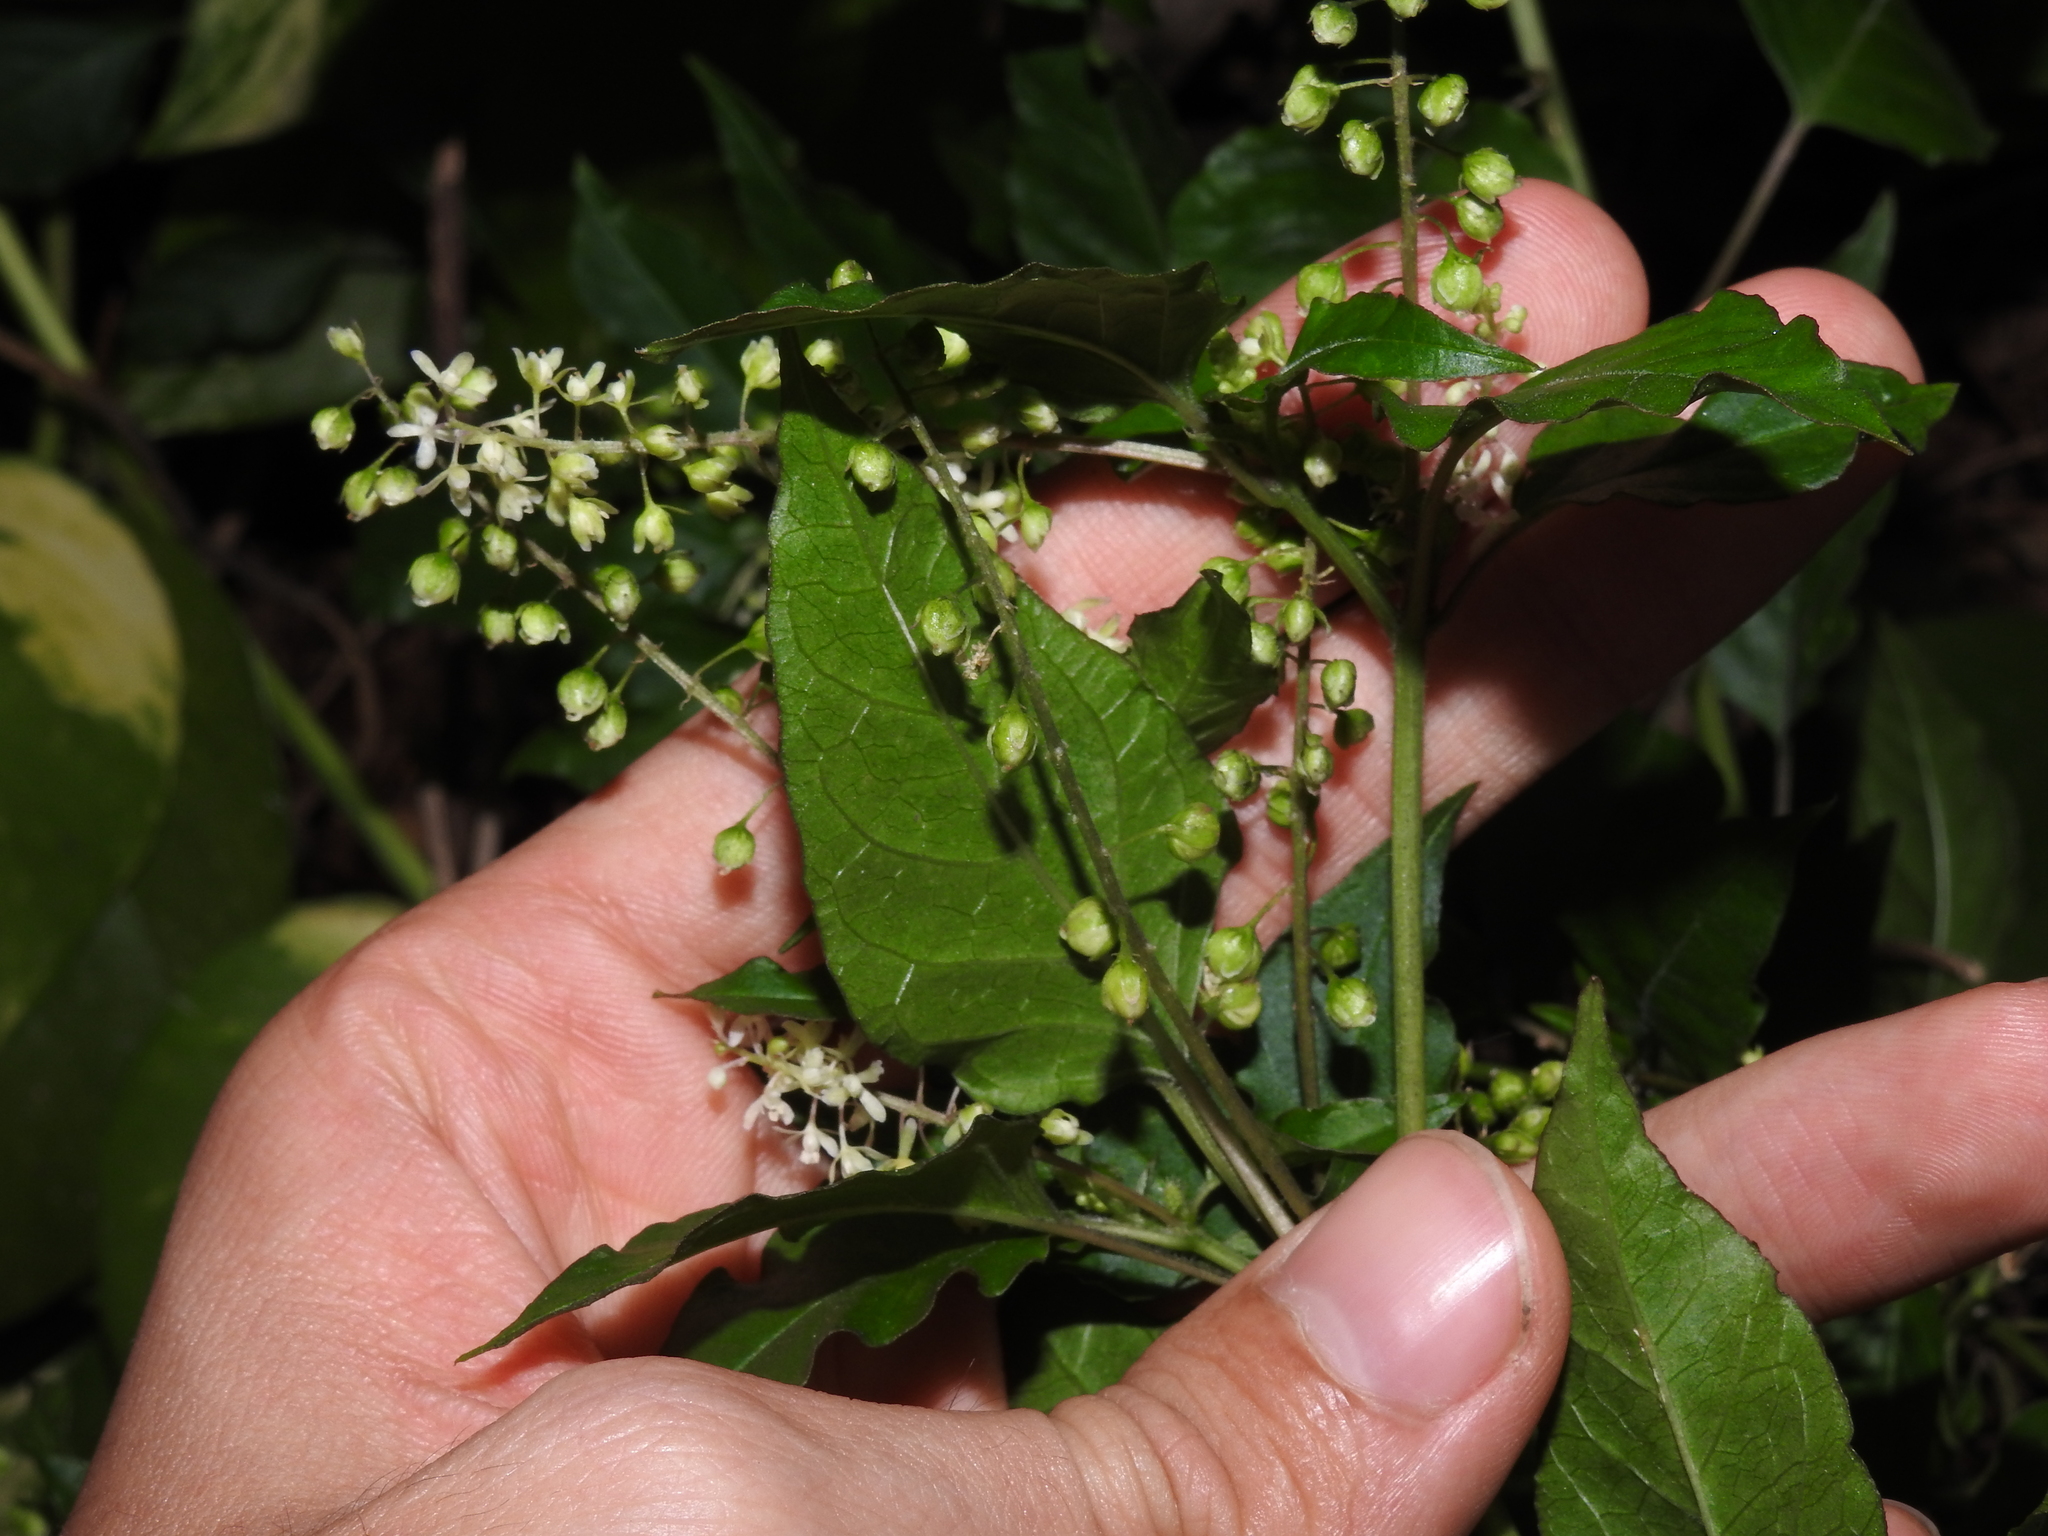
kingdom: Plantae
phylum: Tracheophyta
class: Magnoliopsida
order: Caryophyllales
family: Phytolaccaceae
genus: Rivina
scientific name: Rivina humilis
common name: Rougeplant
